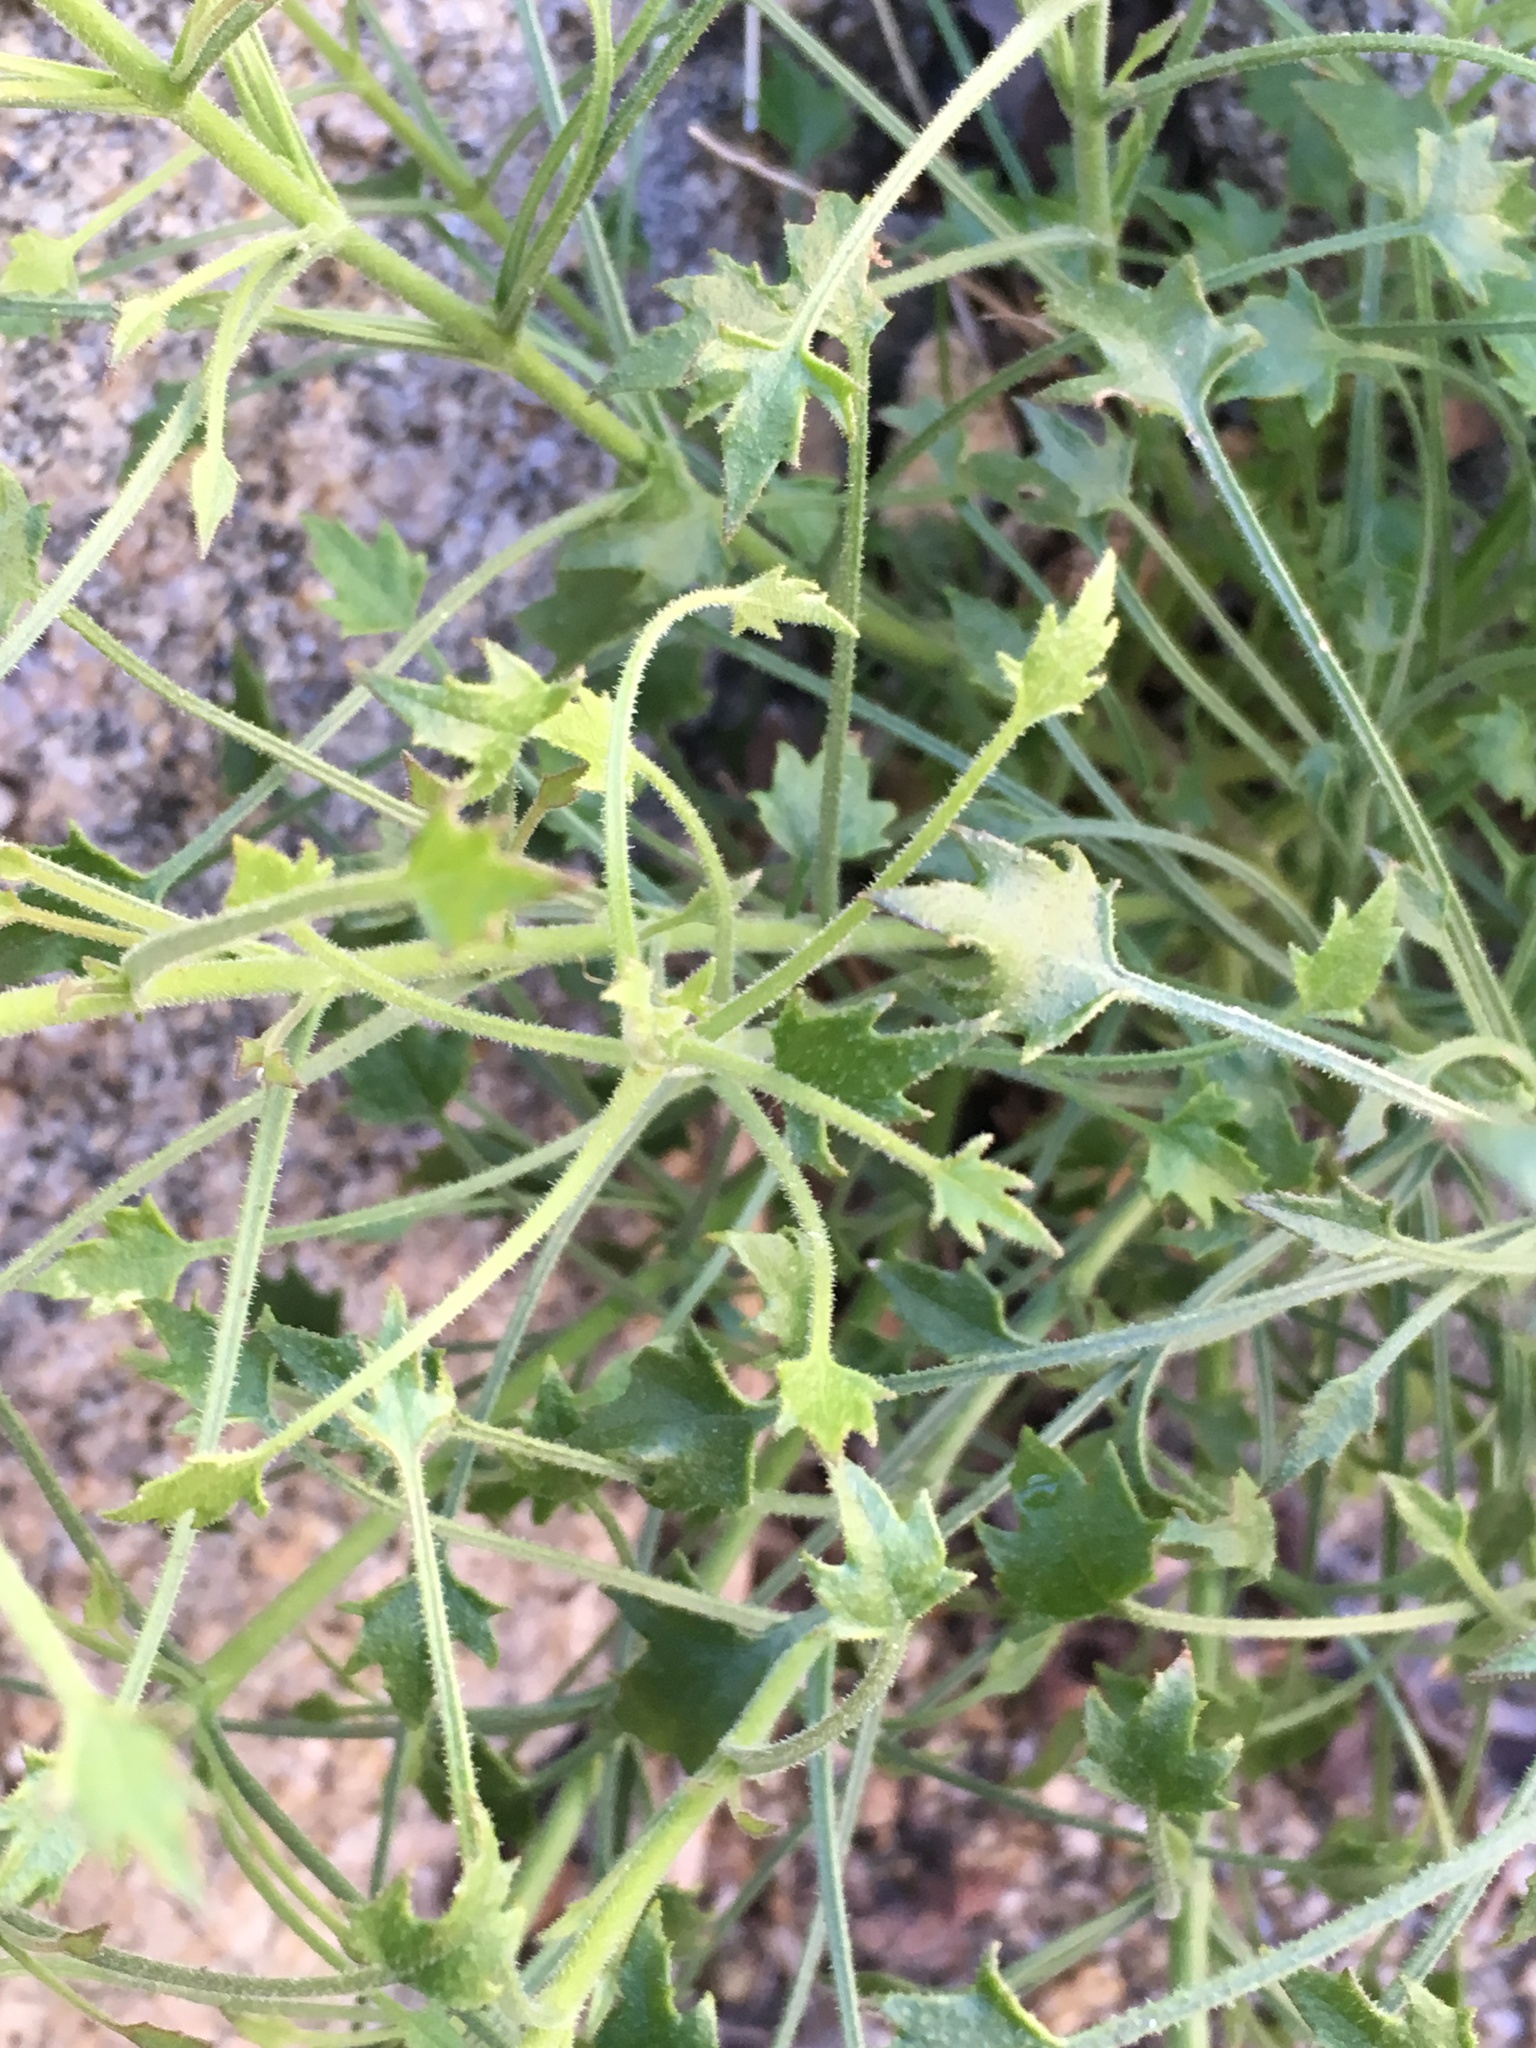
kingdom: Plantae
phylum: Tracheophyta
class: Magnoliopsida
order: Asterales
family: Asteraceae
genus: Pleurocoronis
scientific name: Pleurocoronis pluriseta
